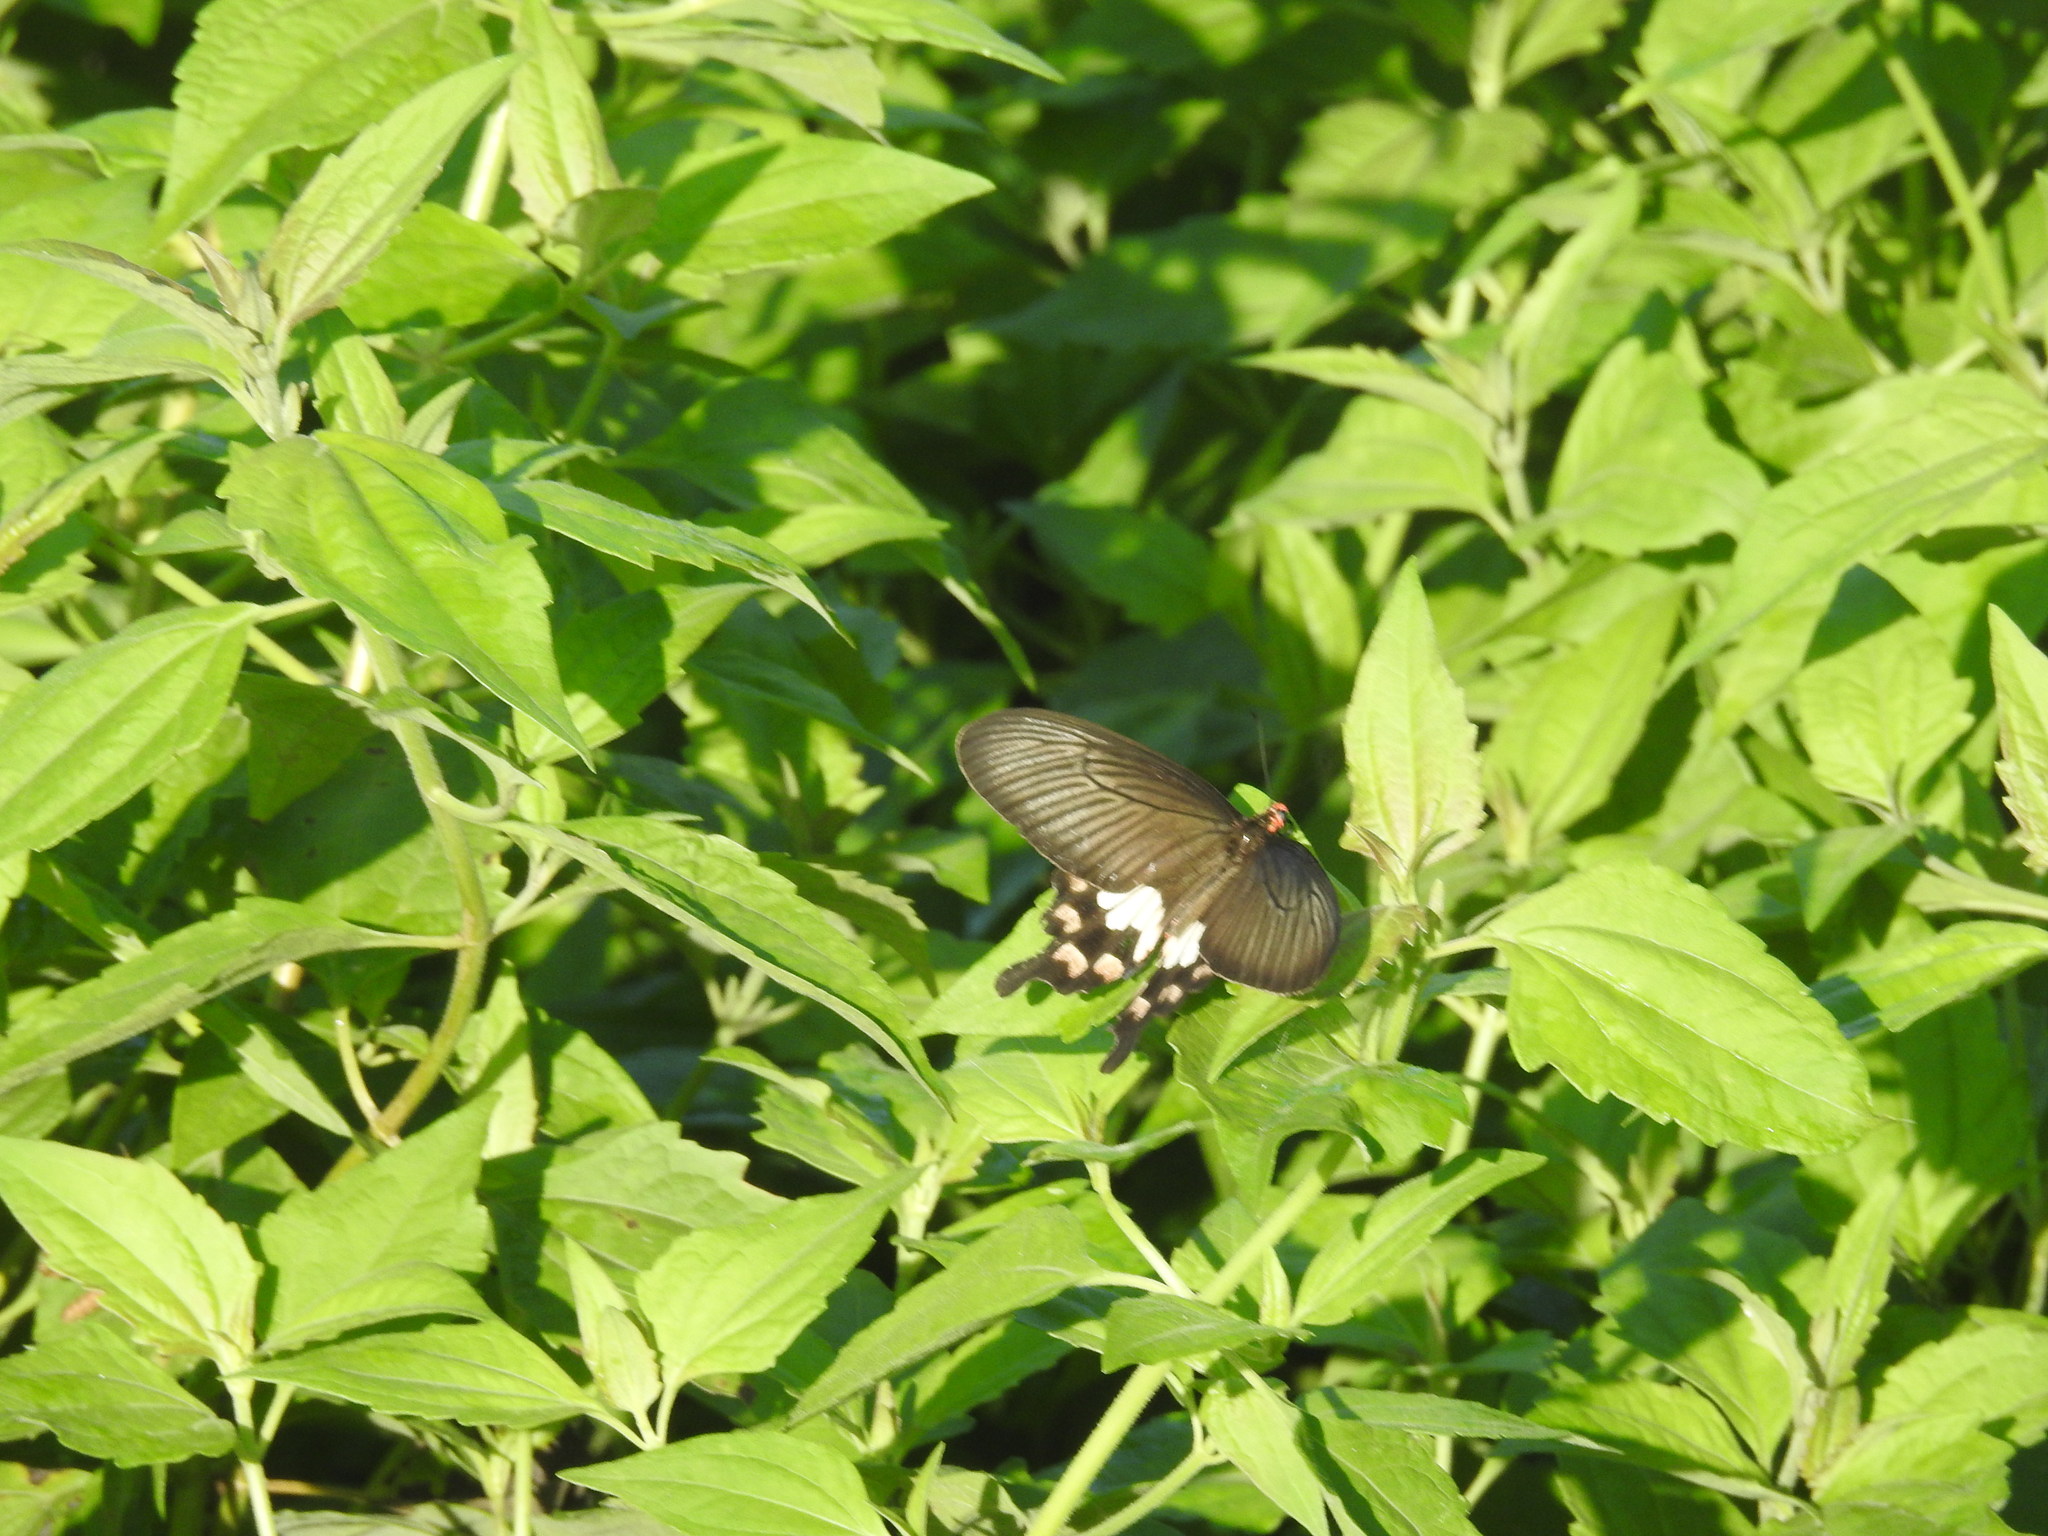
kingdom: Animalia
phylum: Arthropoda
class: Insecta
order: Lepidoptera
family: Papilionidae
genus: Pachliopta
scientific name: Pachliopta aristolochiae
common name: Common rose
